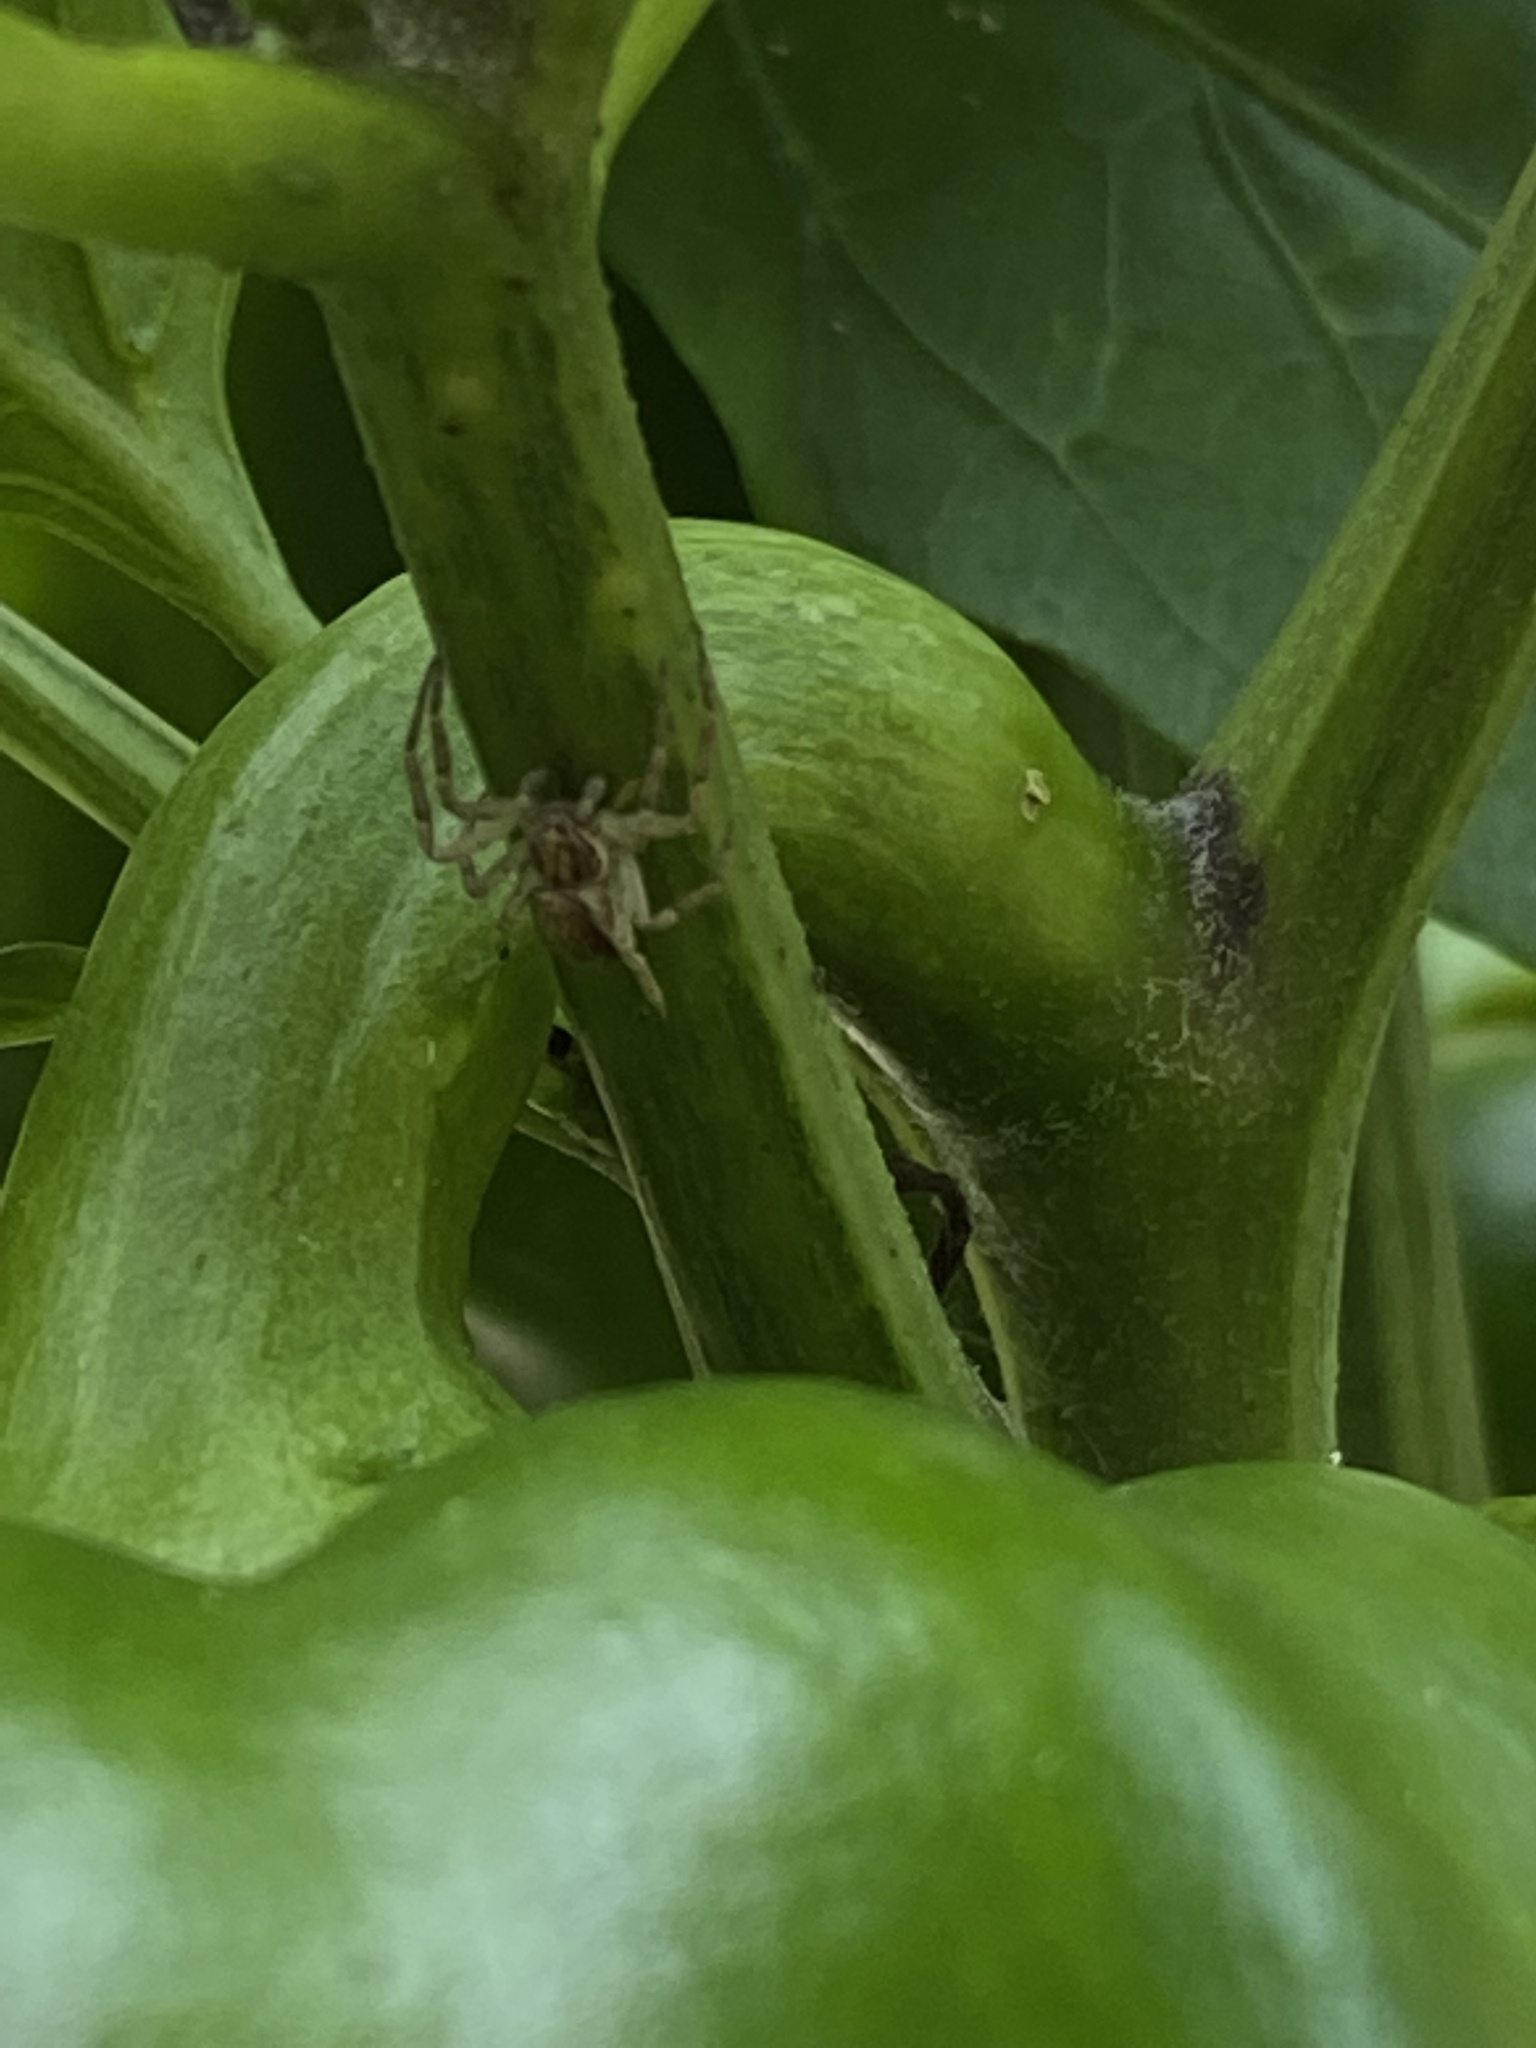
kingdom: Animalia
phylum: Arthropoda
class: Arachnida
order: Araneae
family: Philodromidae
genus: Philodromus
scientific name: Philodromus dispar
